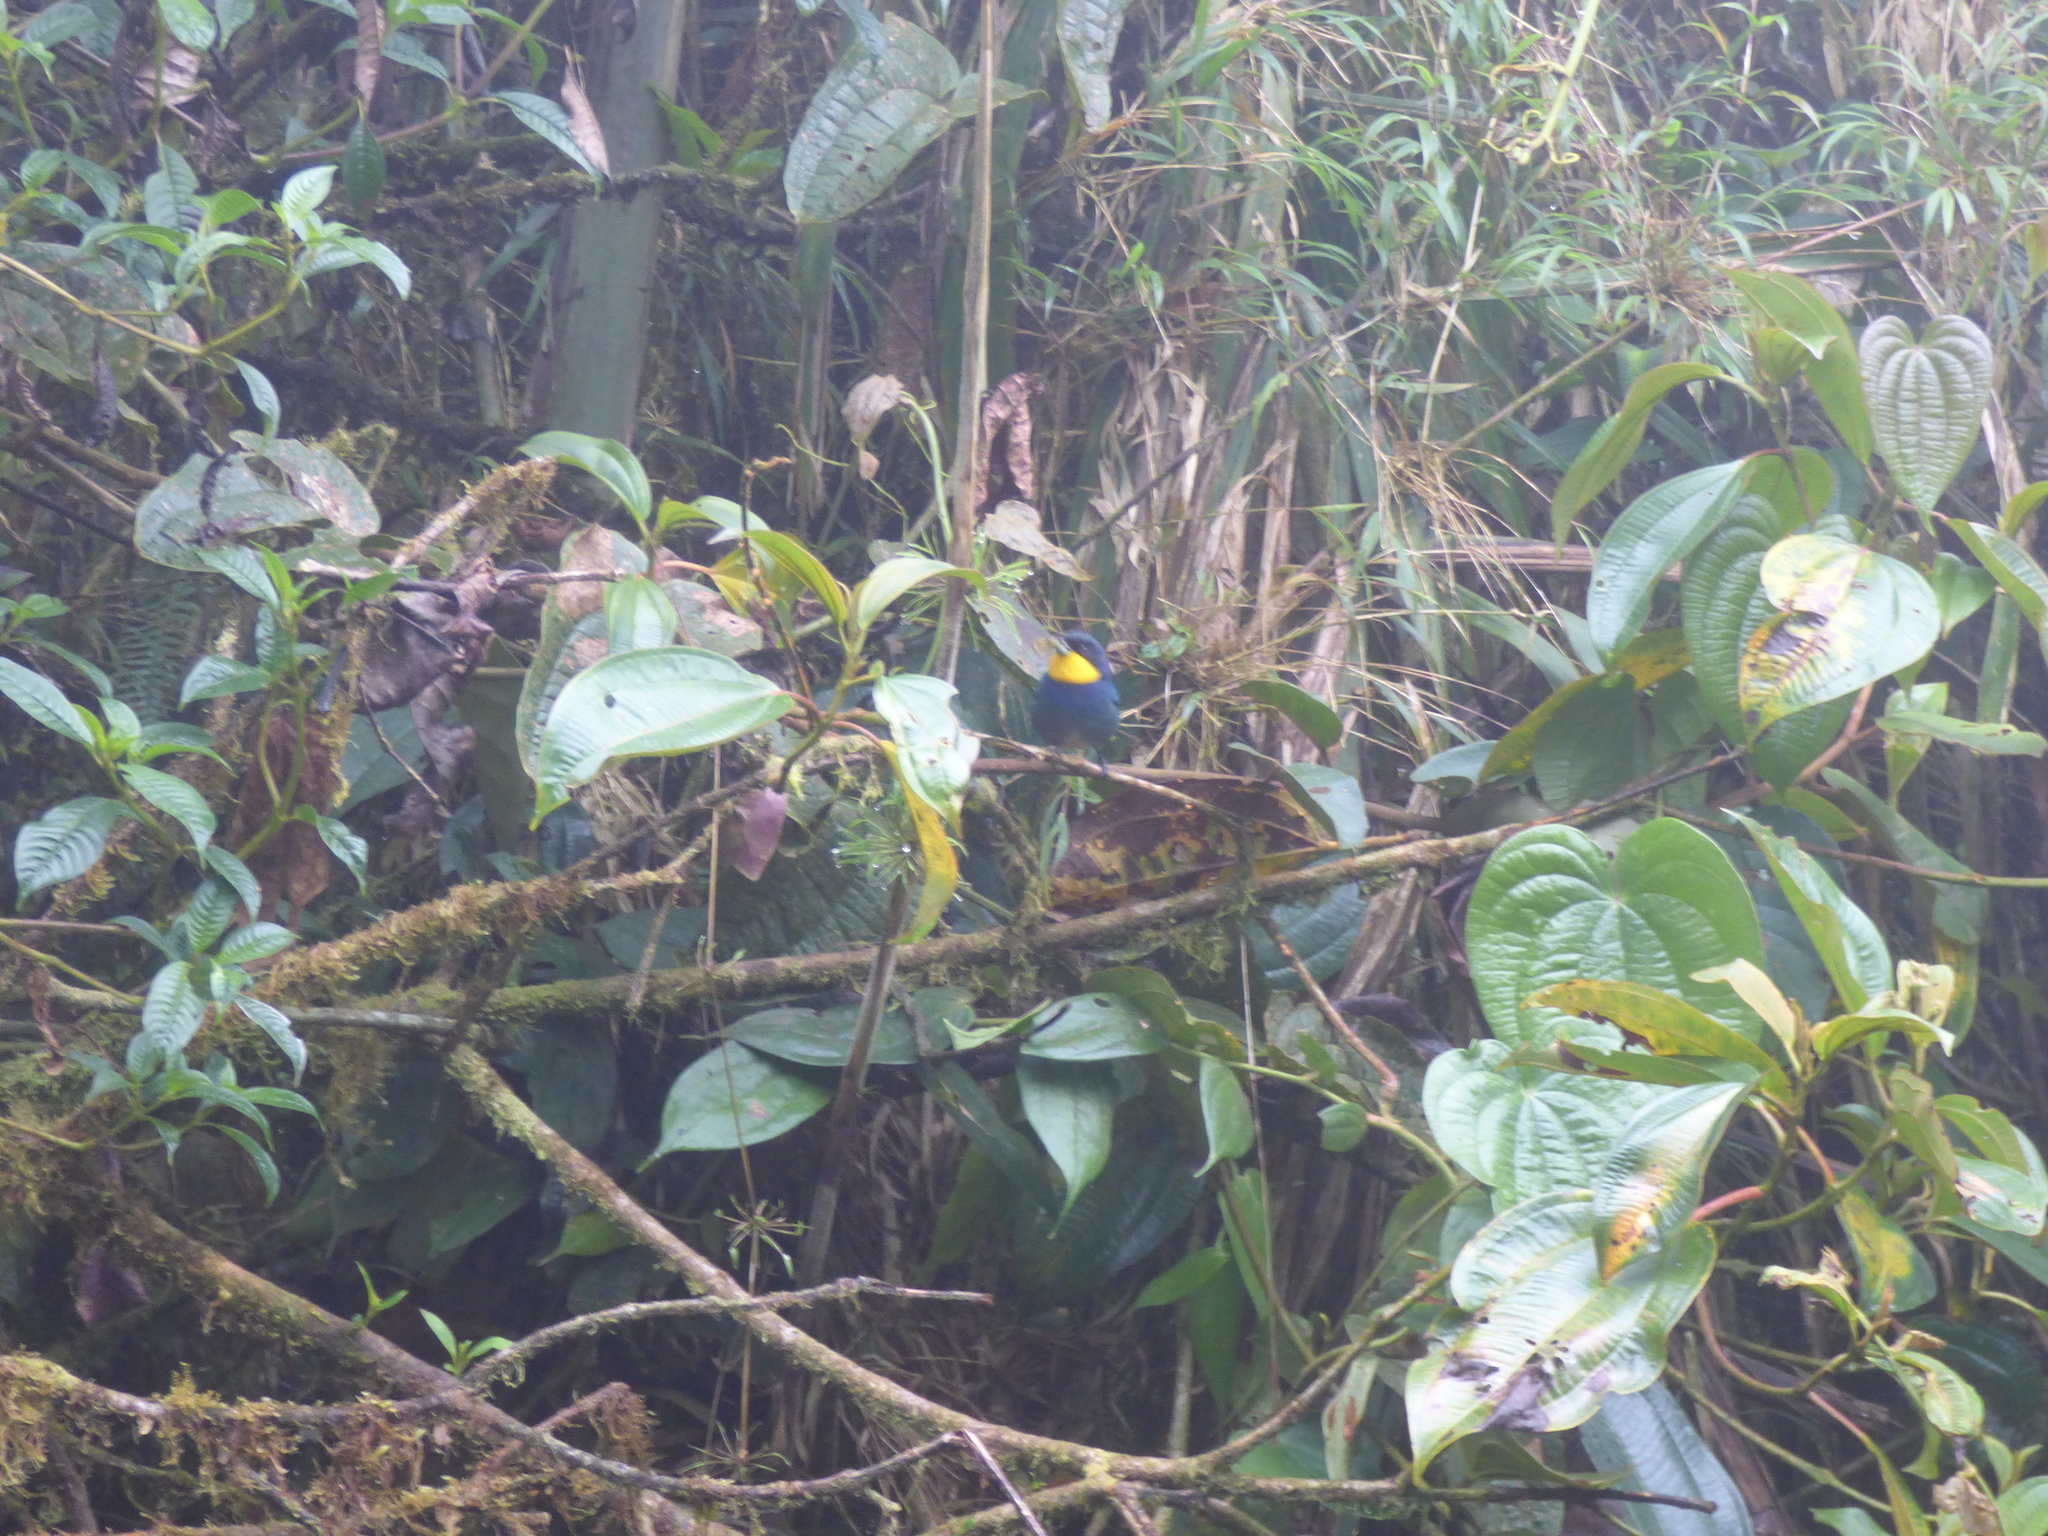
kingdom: Animalia
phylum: Chordata
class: Aves
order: Passeriformes
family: Thraupidae
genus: Iridosornis
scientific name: Iridosornis porphyrocephalus
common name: Purplish-mantled tanager
